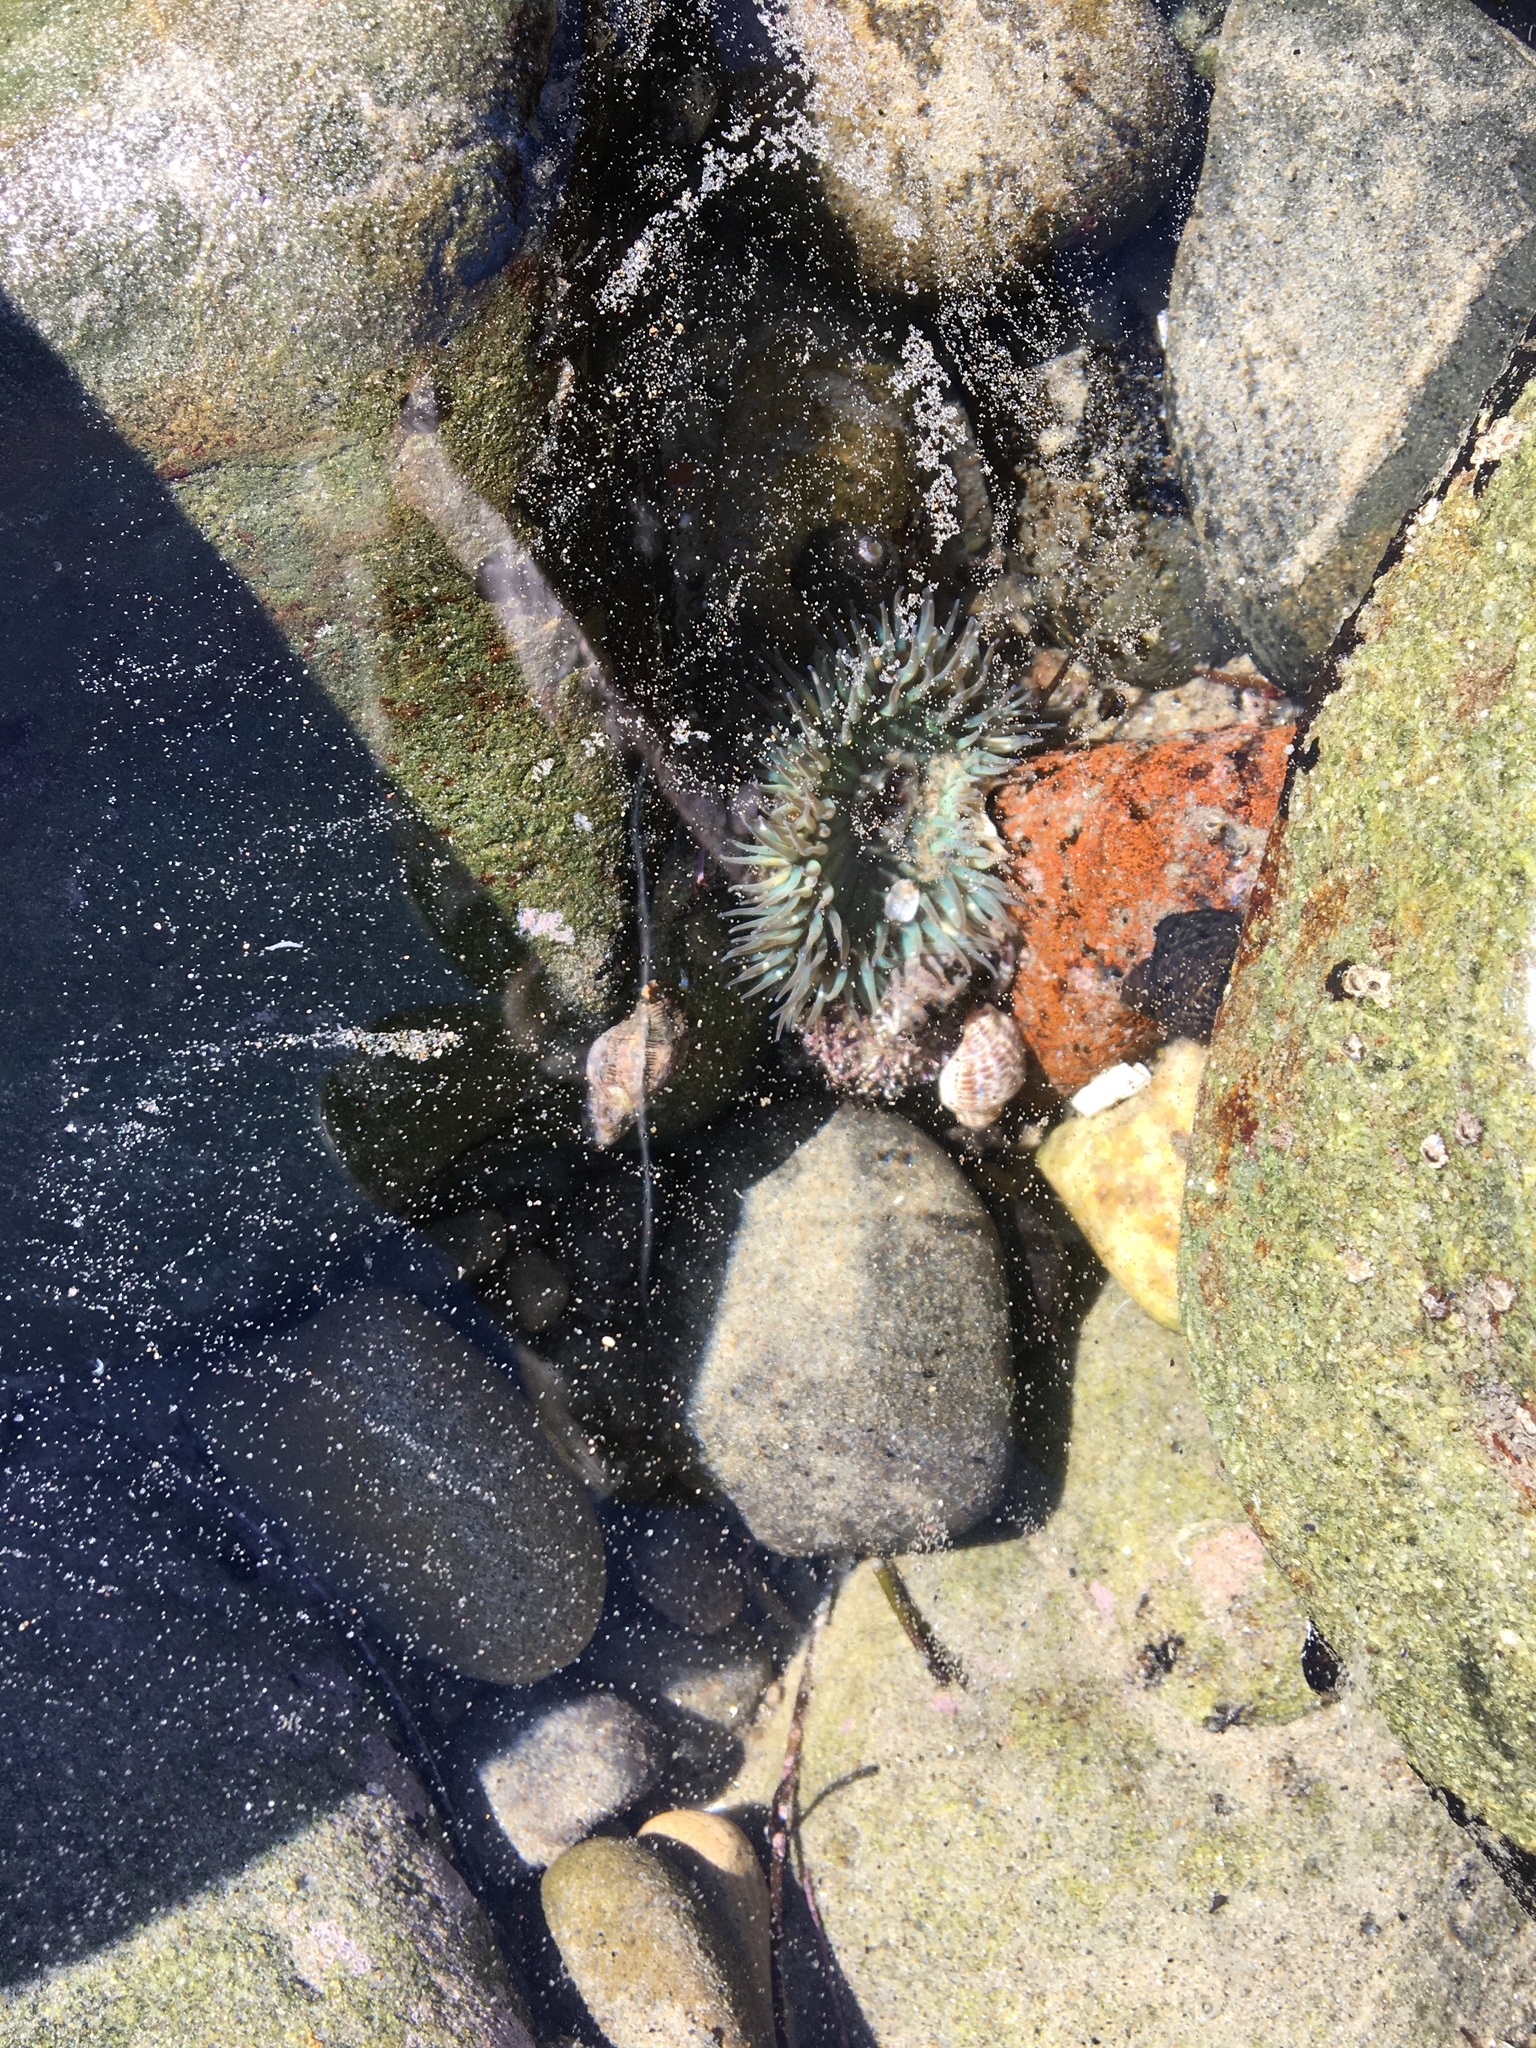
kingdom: Animalia
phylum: Cnidaria
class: Anthozoa
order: Actiniaria
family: Actiniidae
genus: Anthopleura
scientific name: Anthopleura sola
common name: Sun anemone
